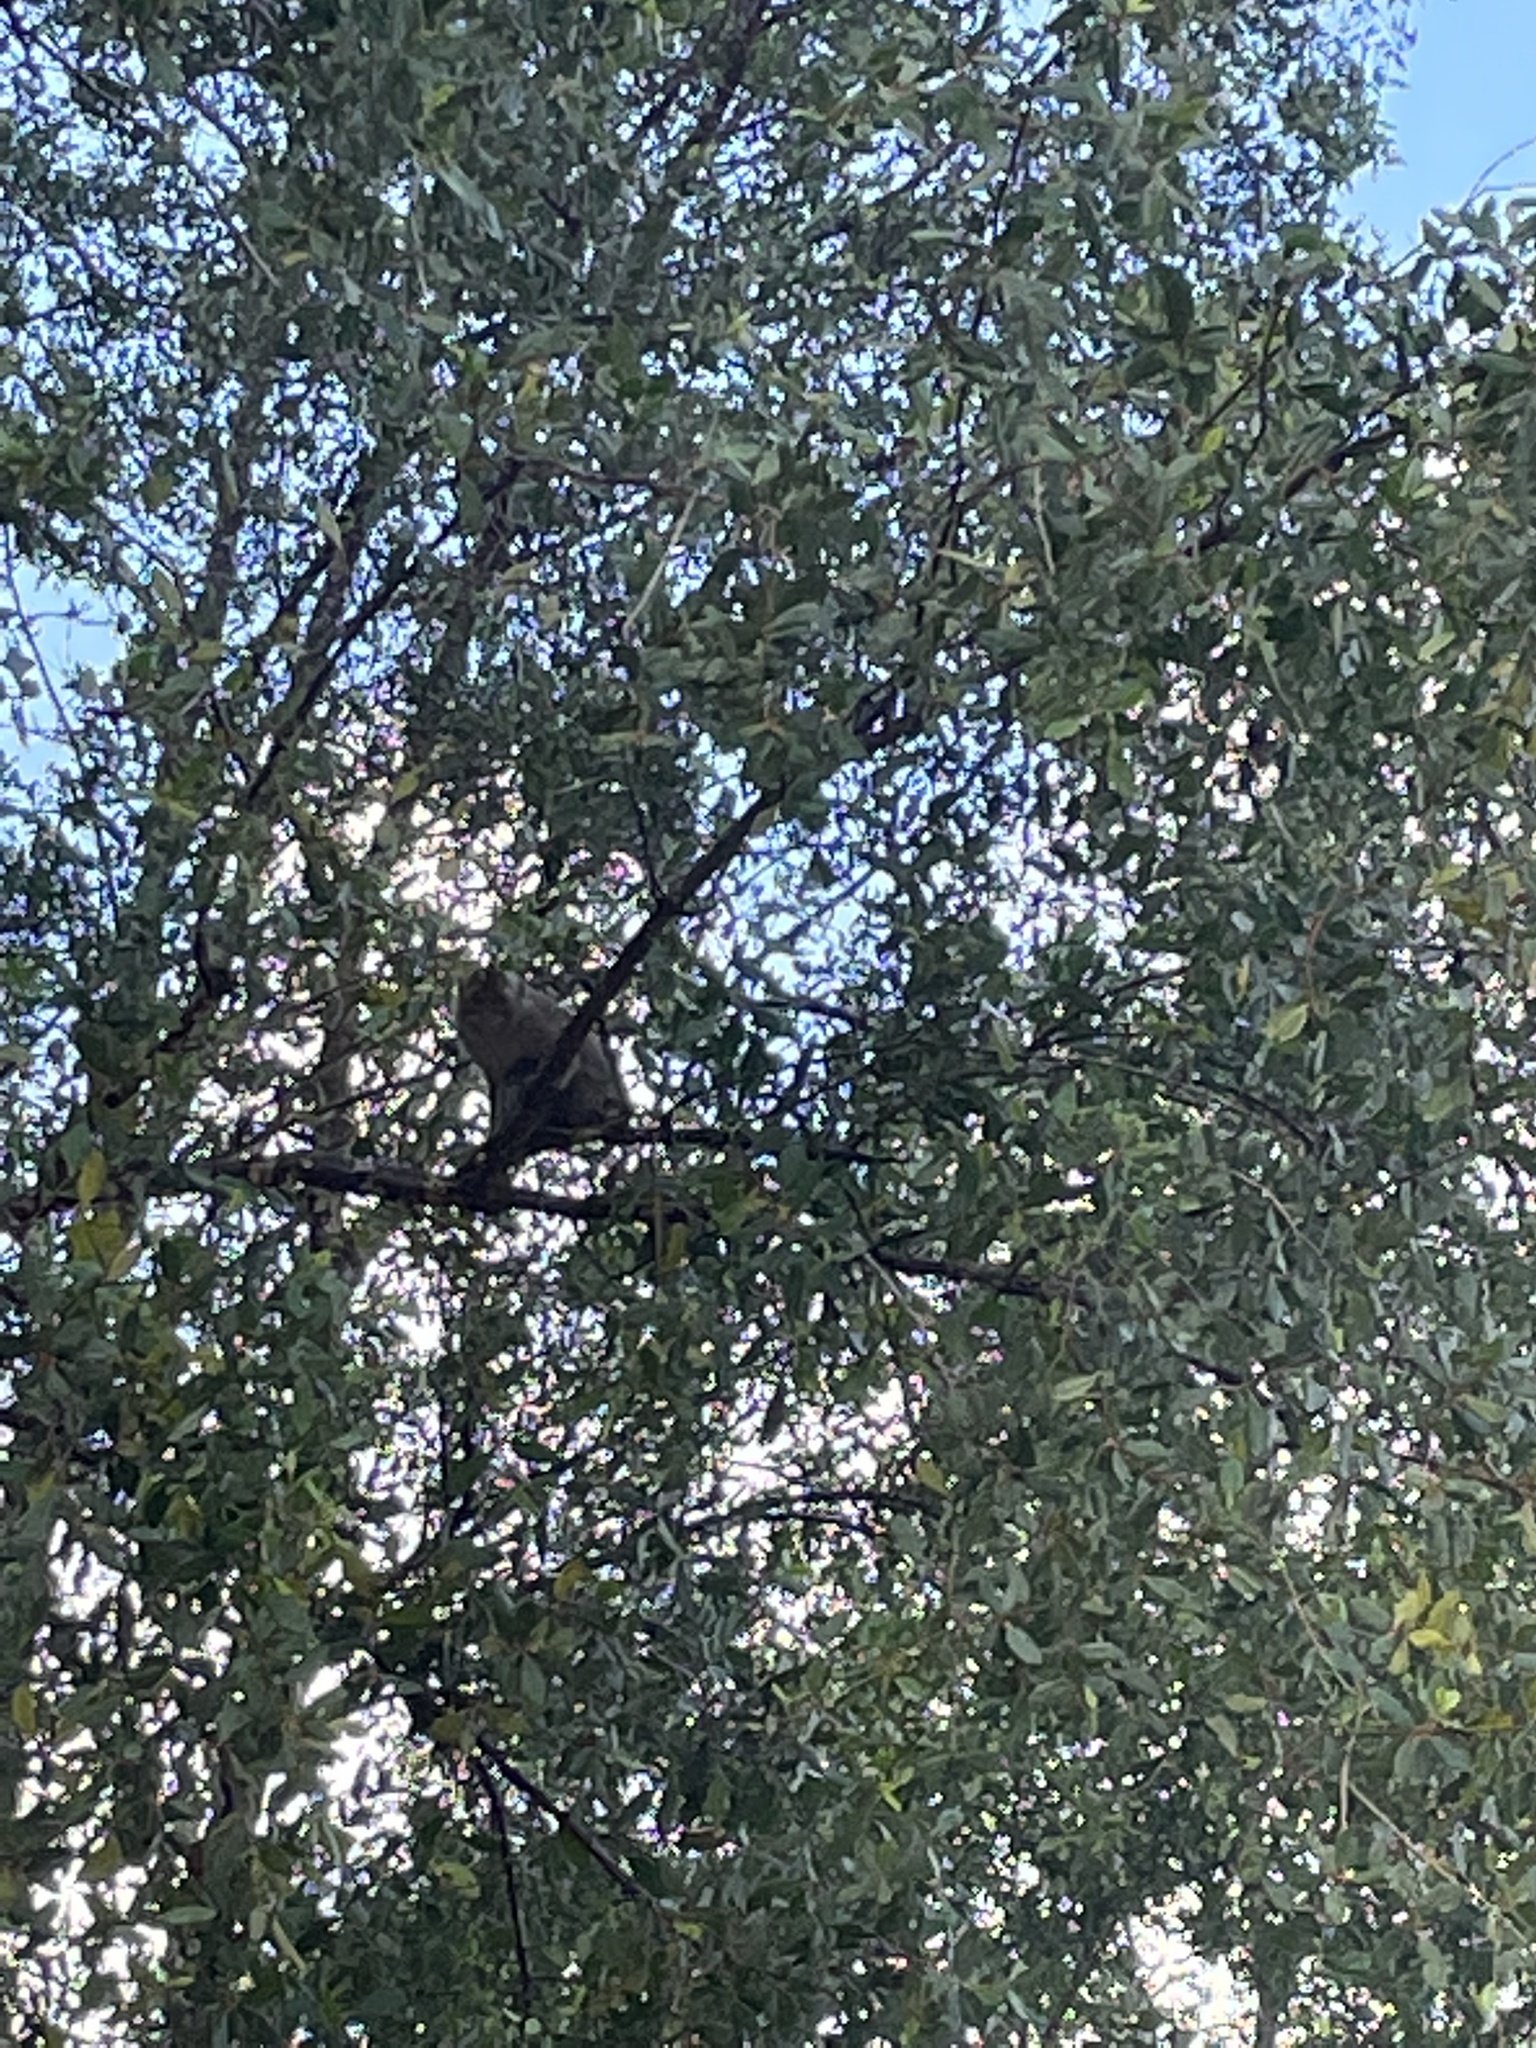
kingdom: Animalia
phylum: Chordata
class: Mammalia
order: Primates
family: Cercopithecidae
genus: Macaca
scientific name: Macaca fascicularis
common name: Crab-eating macaque
